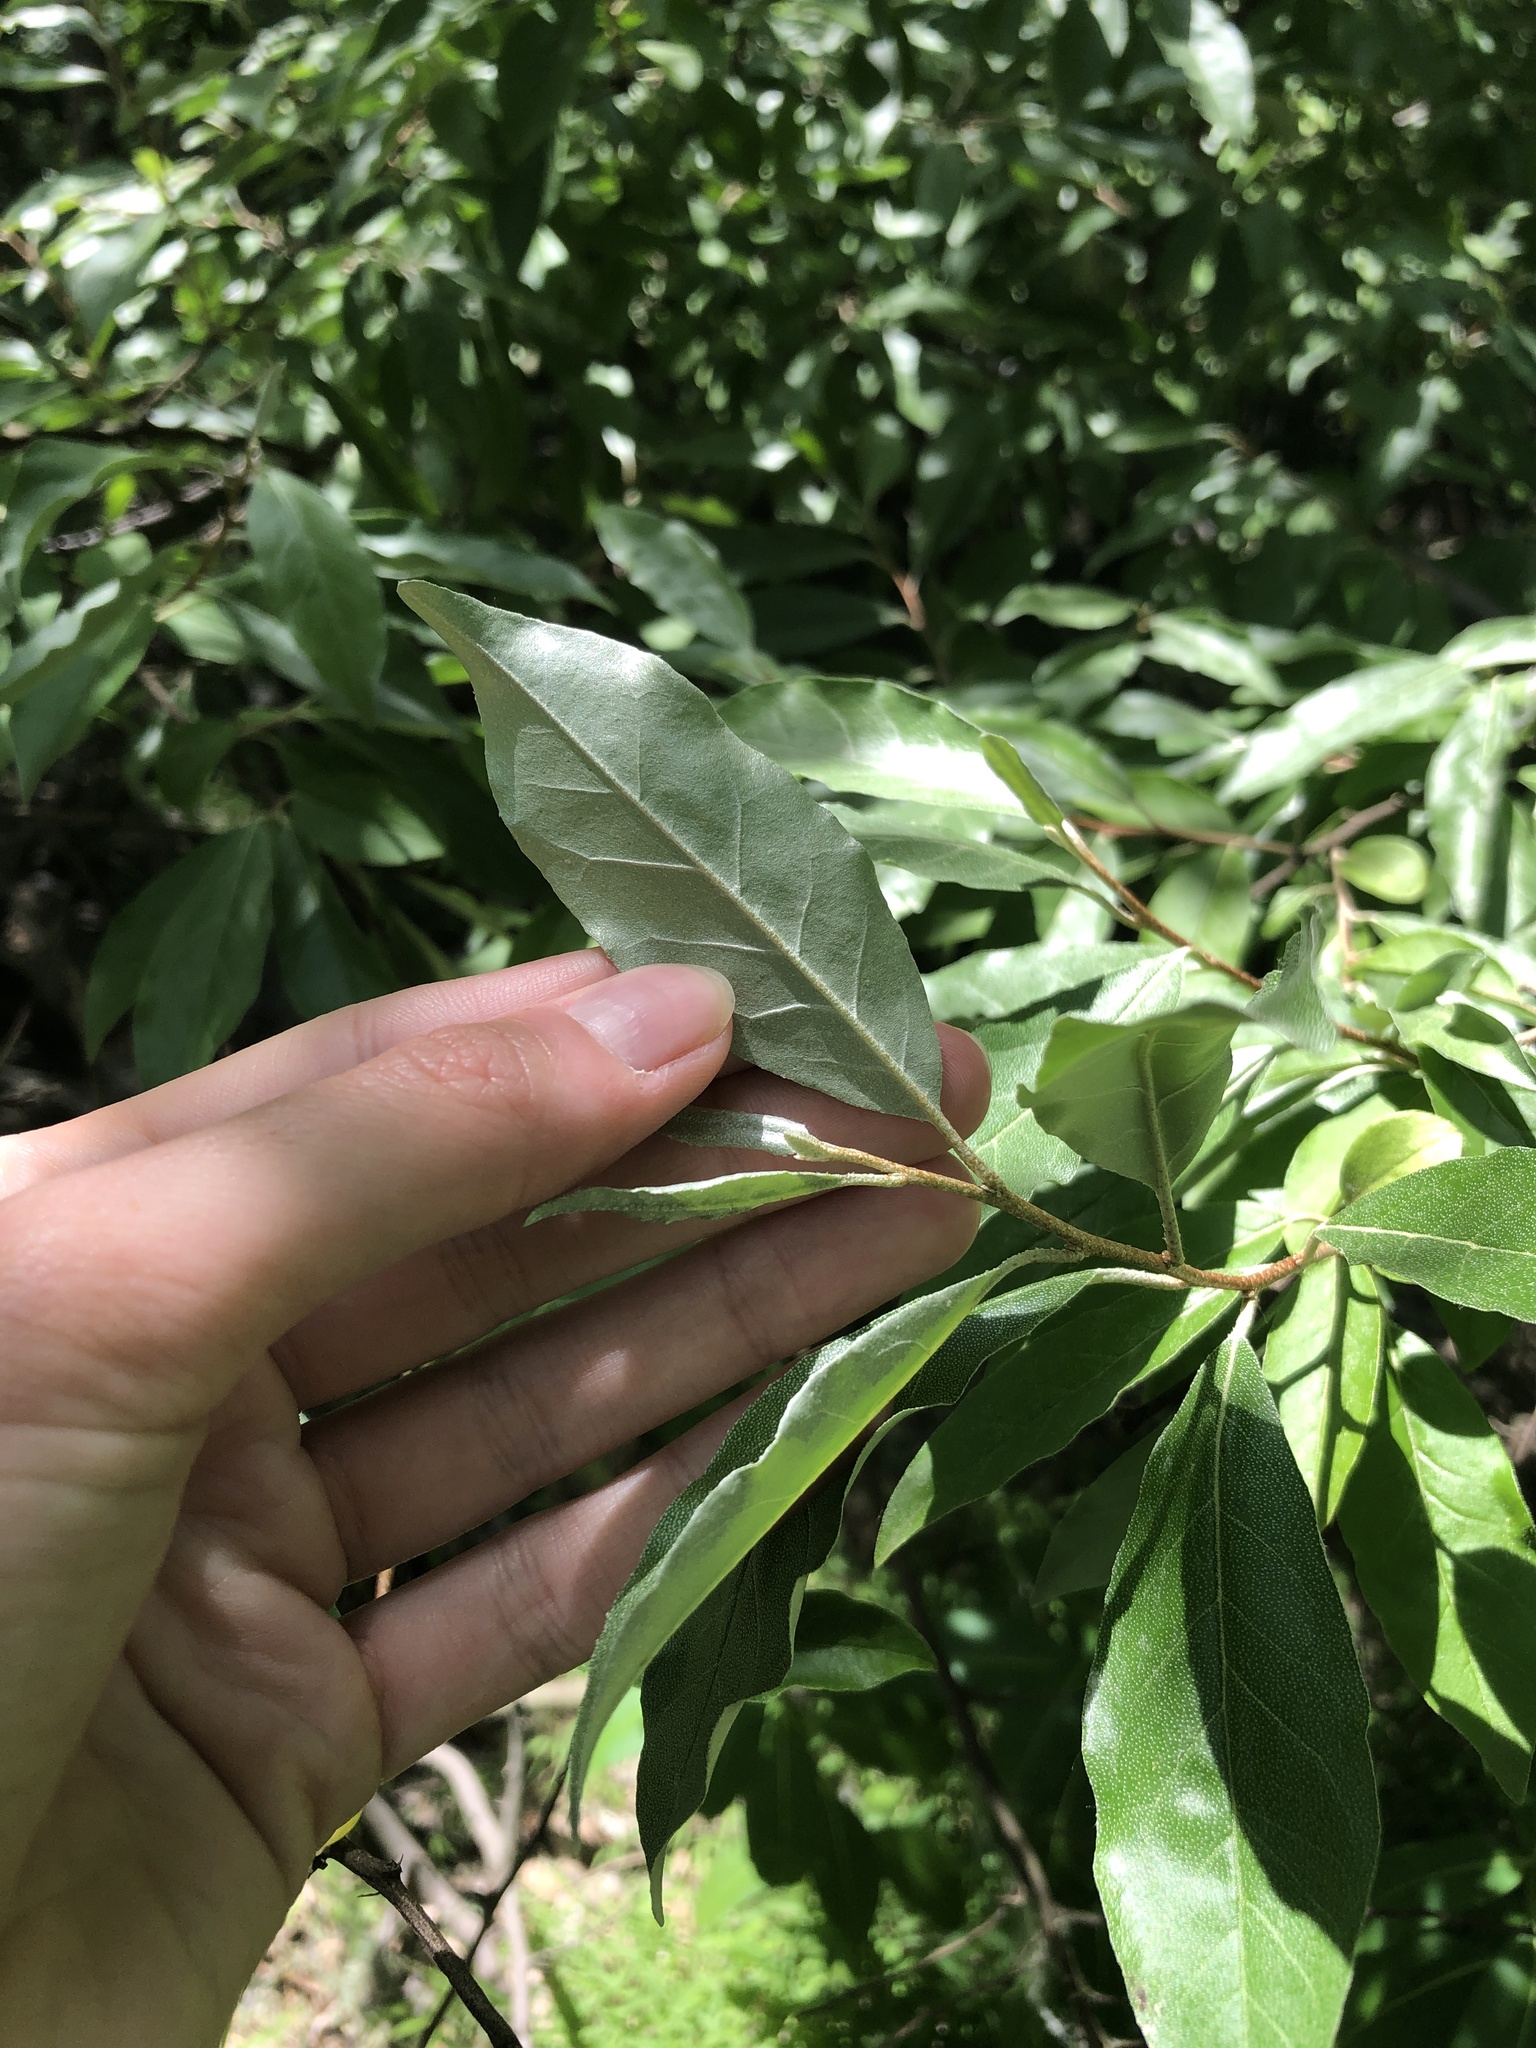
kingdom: Plantae
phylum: Tracheophyta
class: Magnoliopsida
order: Rosales
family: Elaeagnaceae
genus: Elaeagnus
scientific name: Elaeagnus umbellata
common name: Autumn olive
